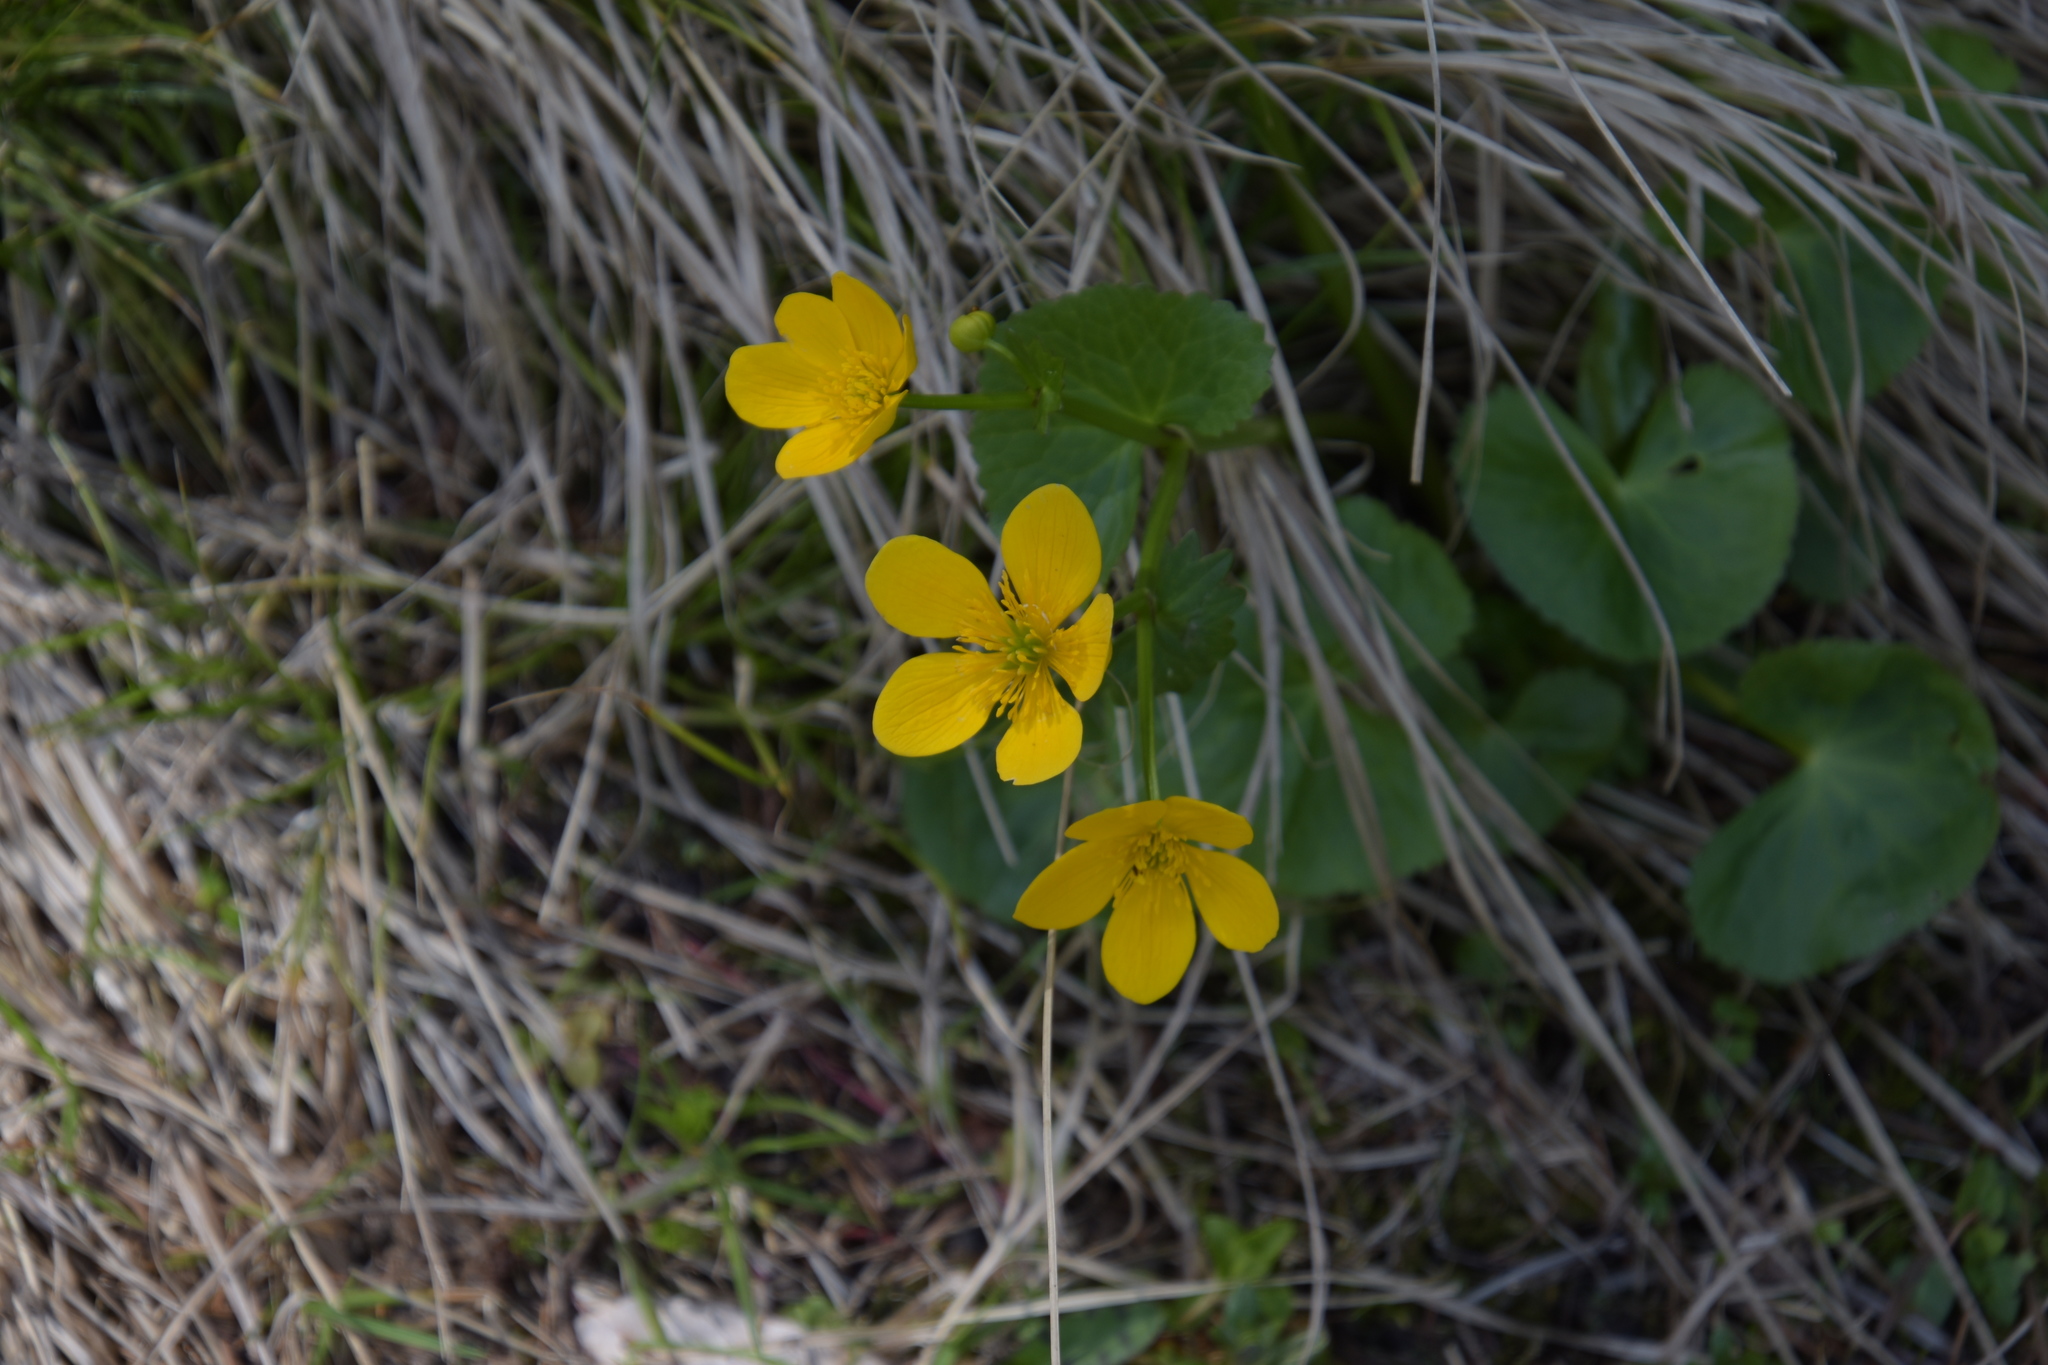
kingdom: Plantae
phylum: Tracheophyta
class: Magnoliopsida
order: Ranunculales
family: Ranunculaceae
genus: Caltha
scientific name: Caltha palustris
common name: Marsh marigold
